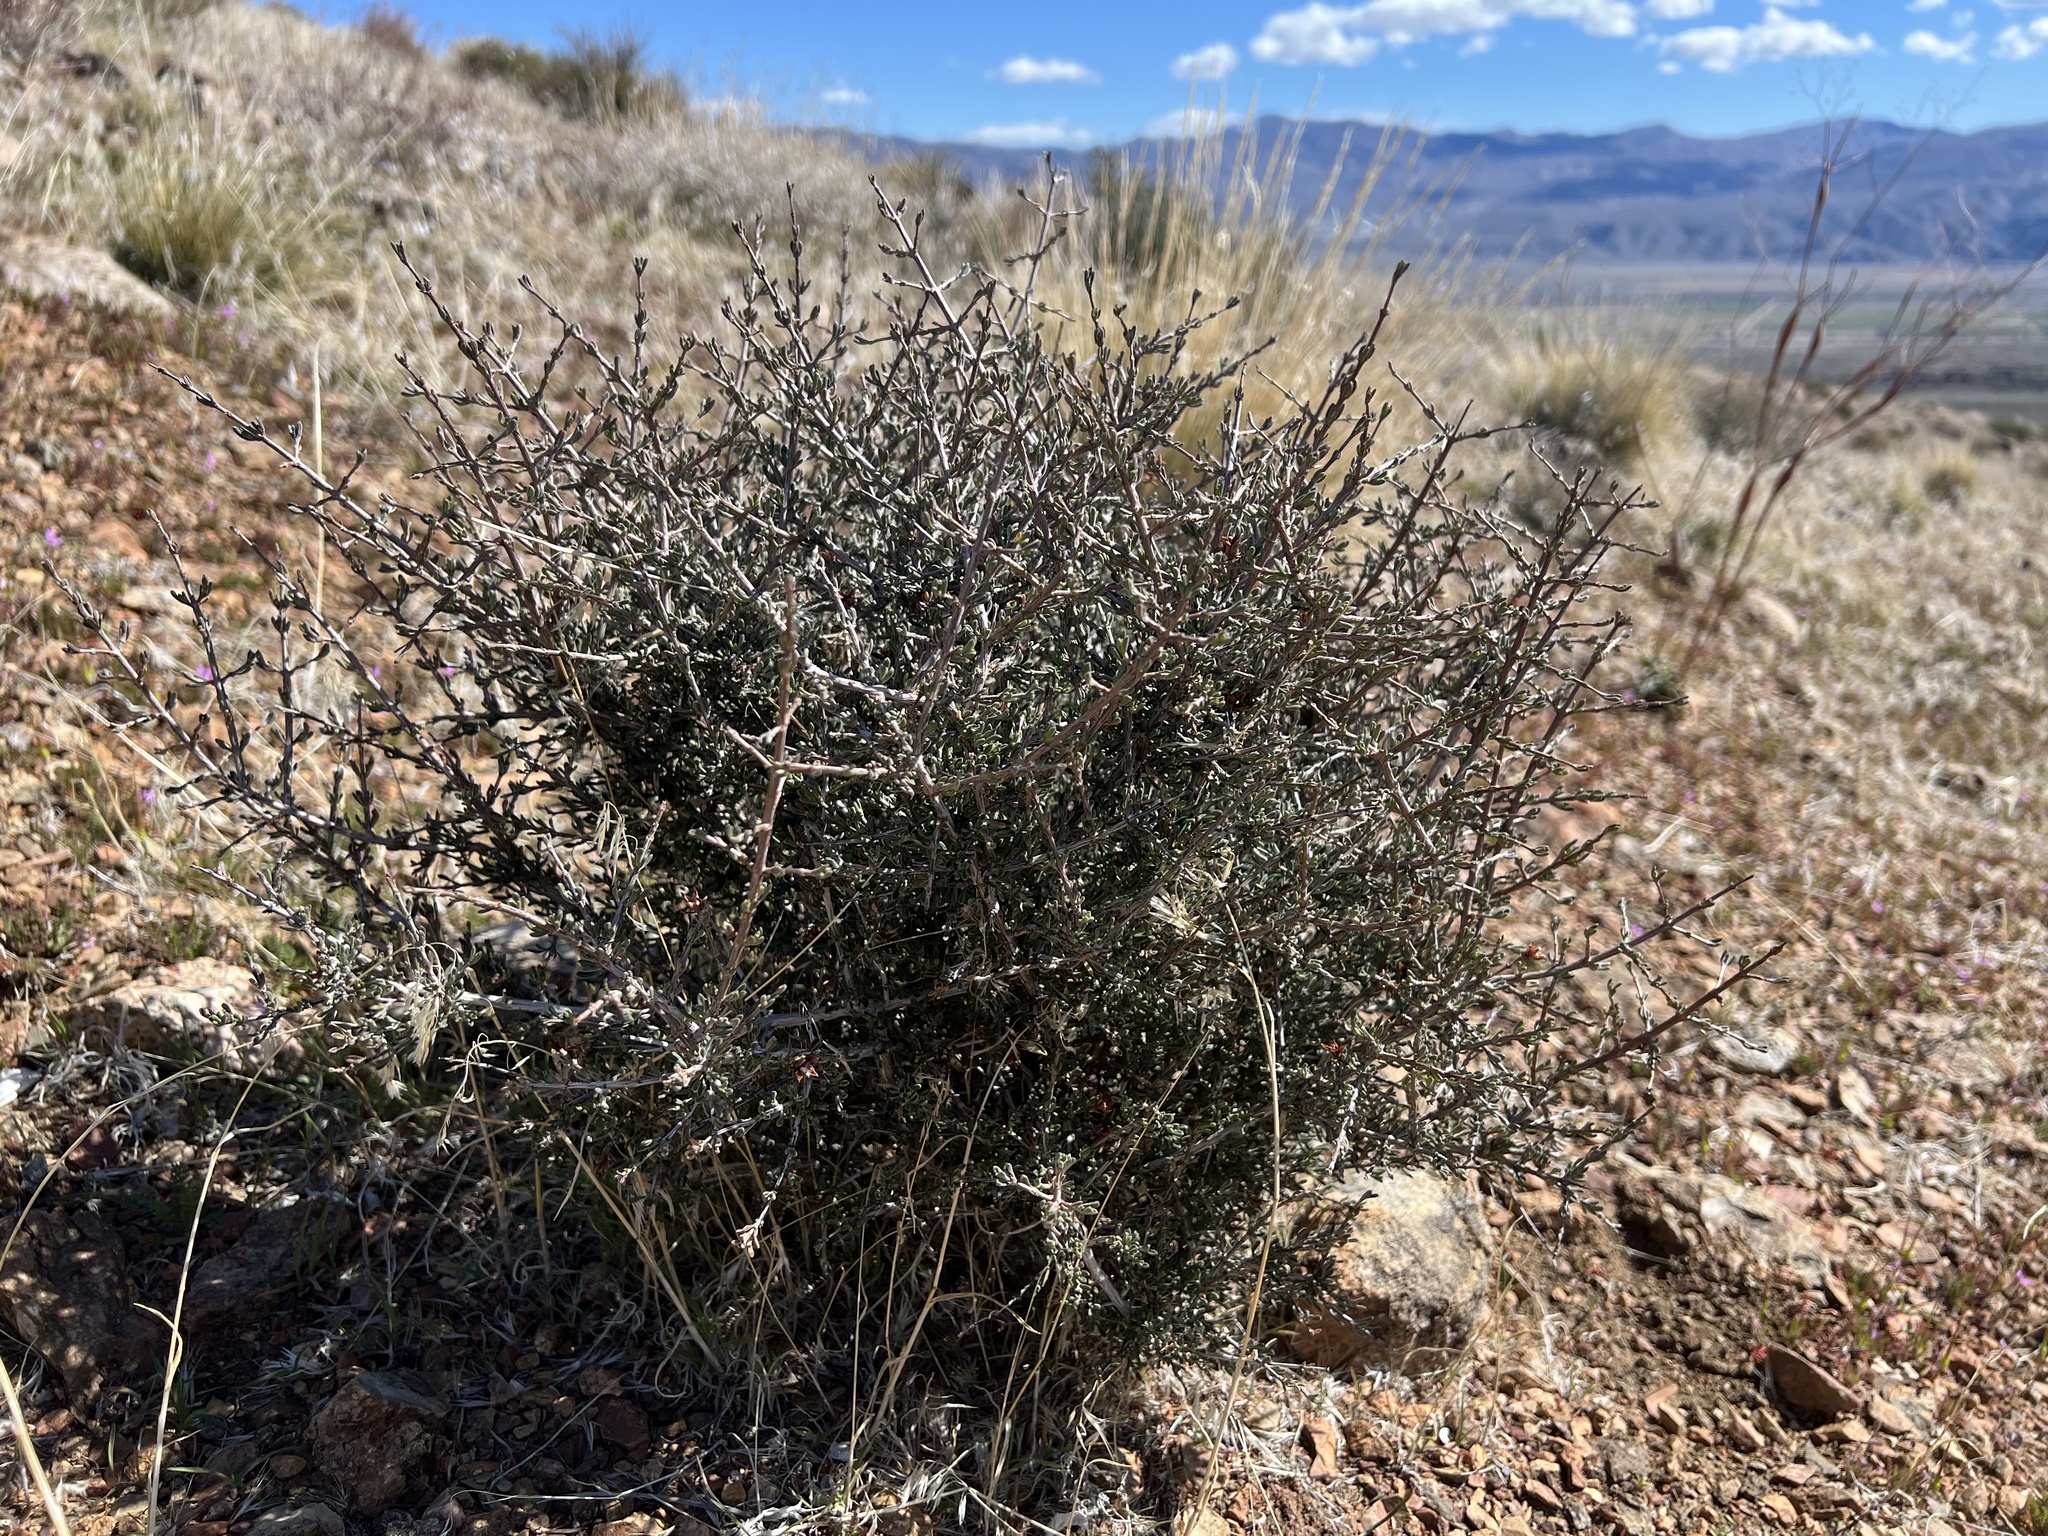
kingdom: Plantae
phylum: Tracheophyta
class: Magnoliopsida
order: Rosales
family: Rosaceae
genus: Coleogyne
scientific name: Coleogyne ramosissima
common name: Blackbrush
